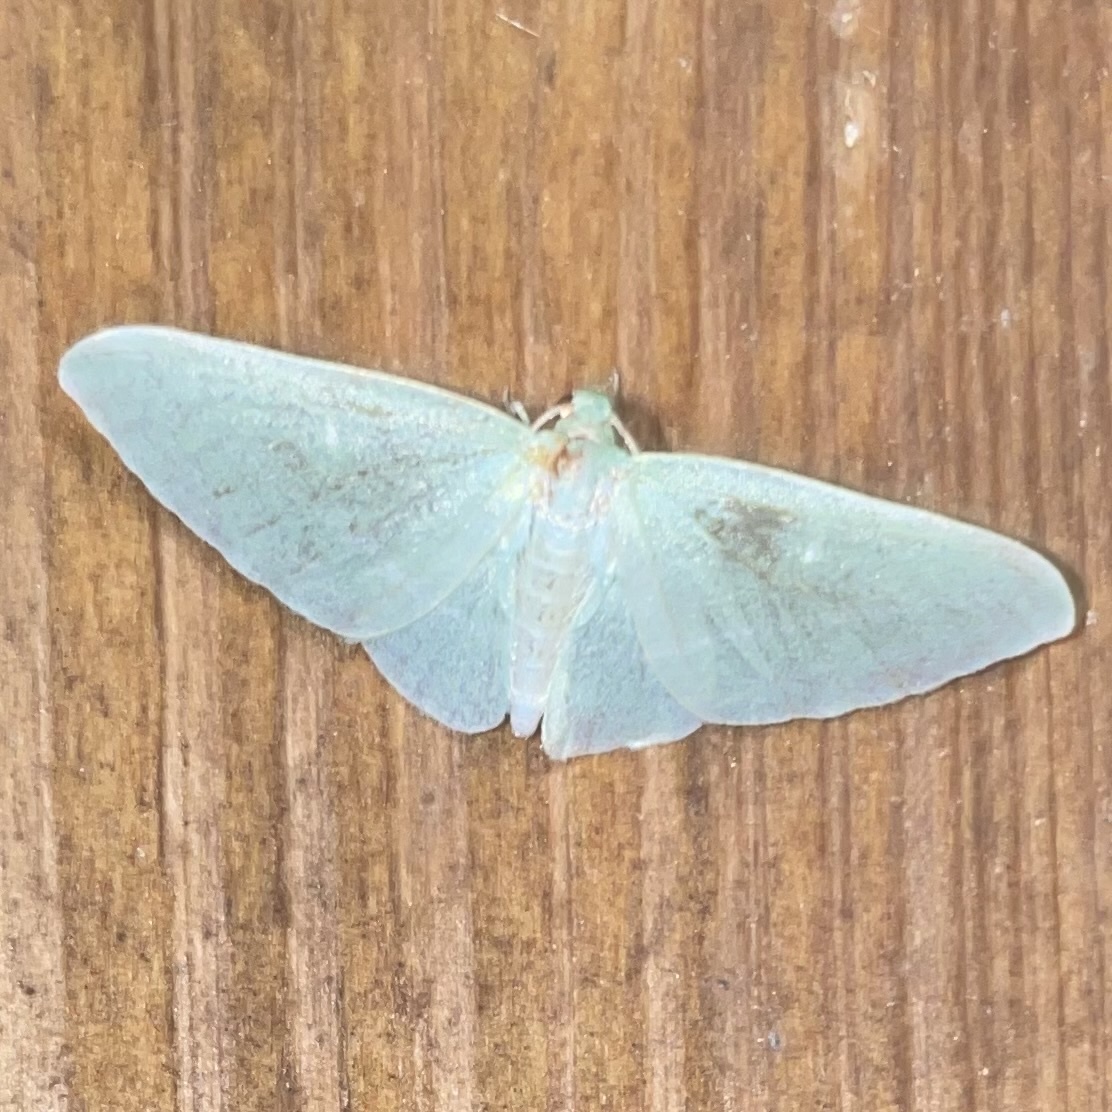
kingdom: Animalia
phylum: Arthropoda
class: Insecta
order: Lepidoptera
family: Geometridae
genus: Dyspteris
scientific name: Dyspteris abortivaria
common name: Bad-wing
